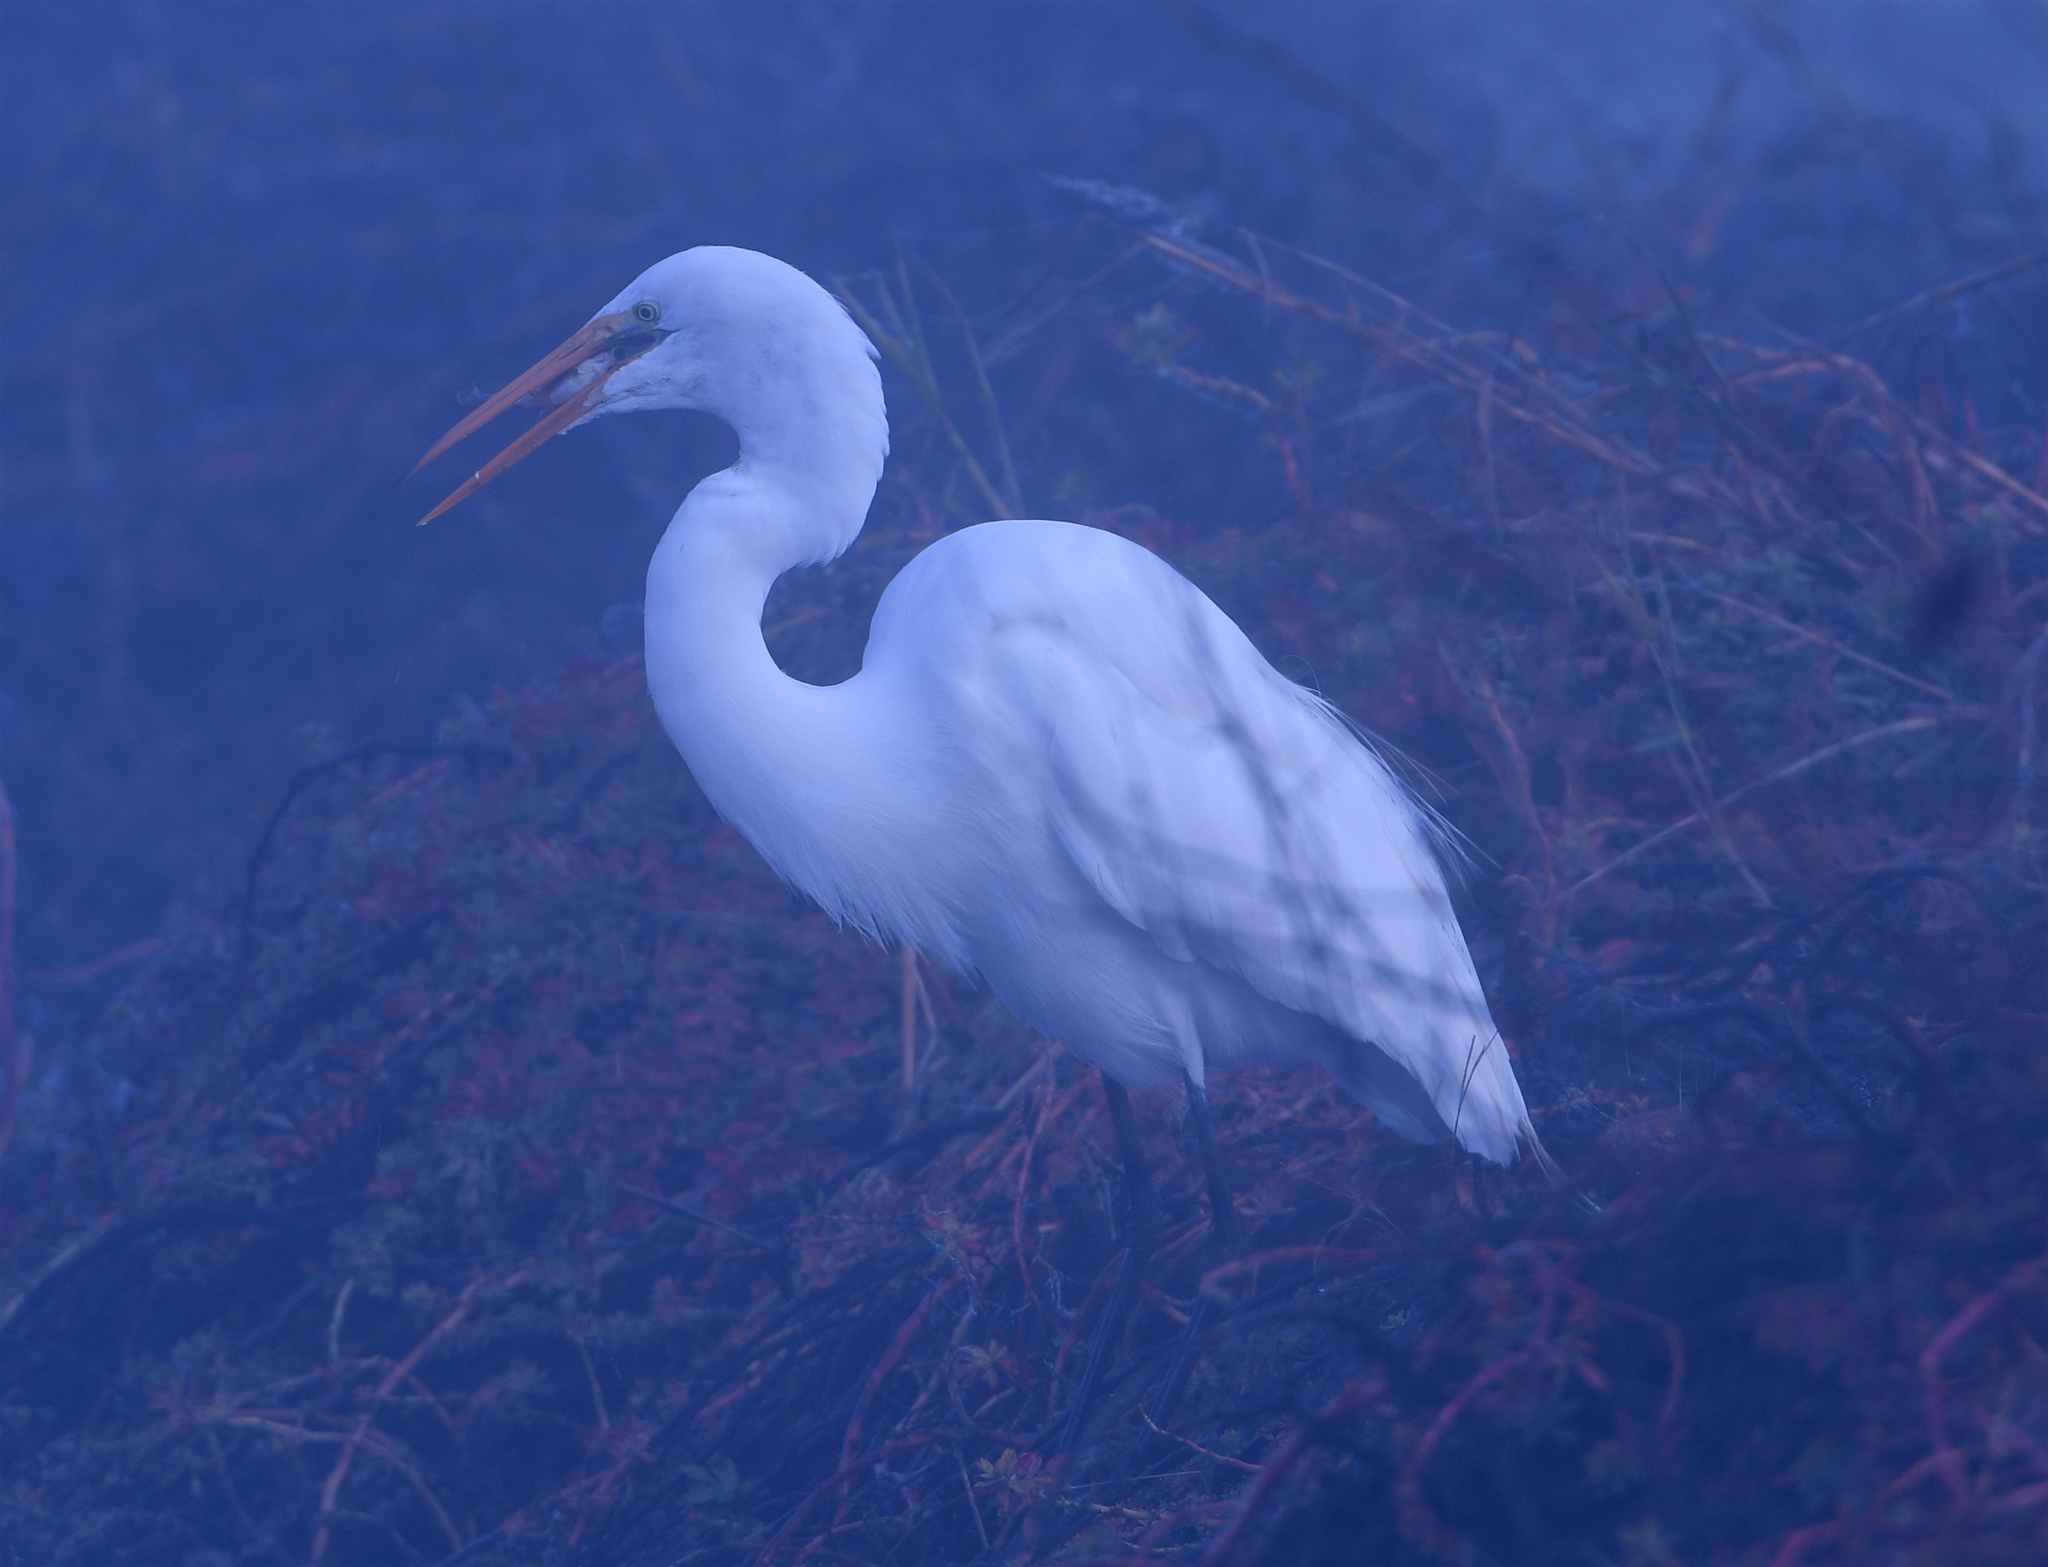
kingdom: Animalia
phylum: Chordata
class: Aves
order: Pelecaniformes
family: Ardeidae
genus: Ardea
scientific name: Ardea alba
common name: Great egret
